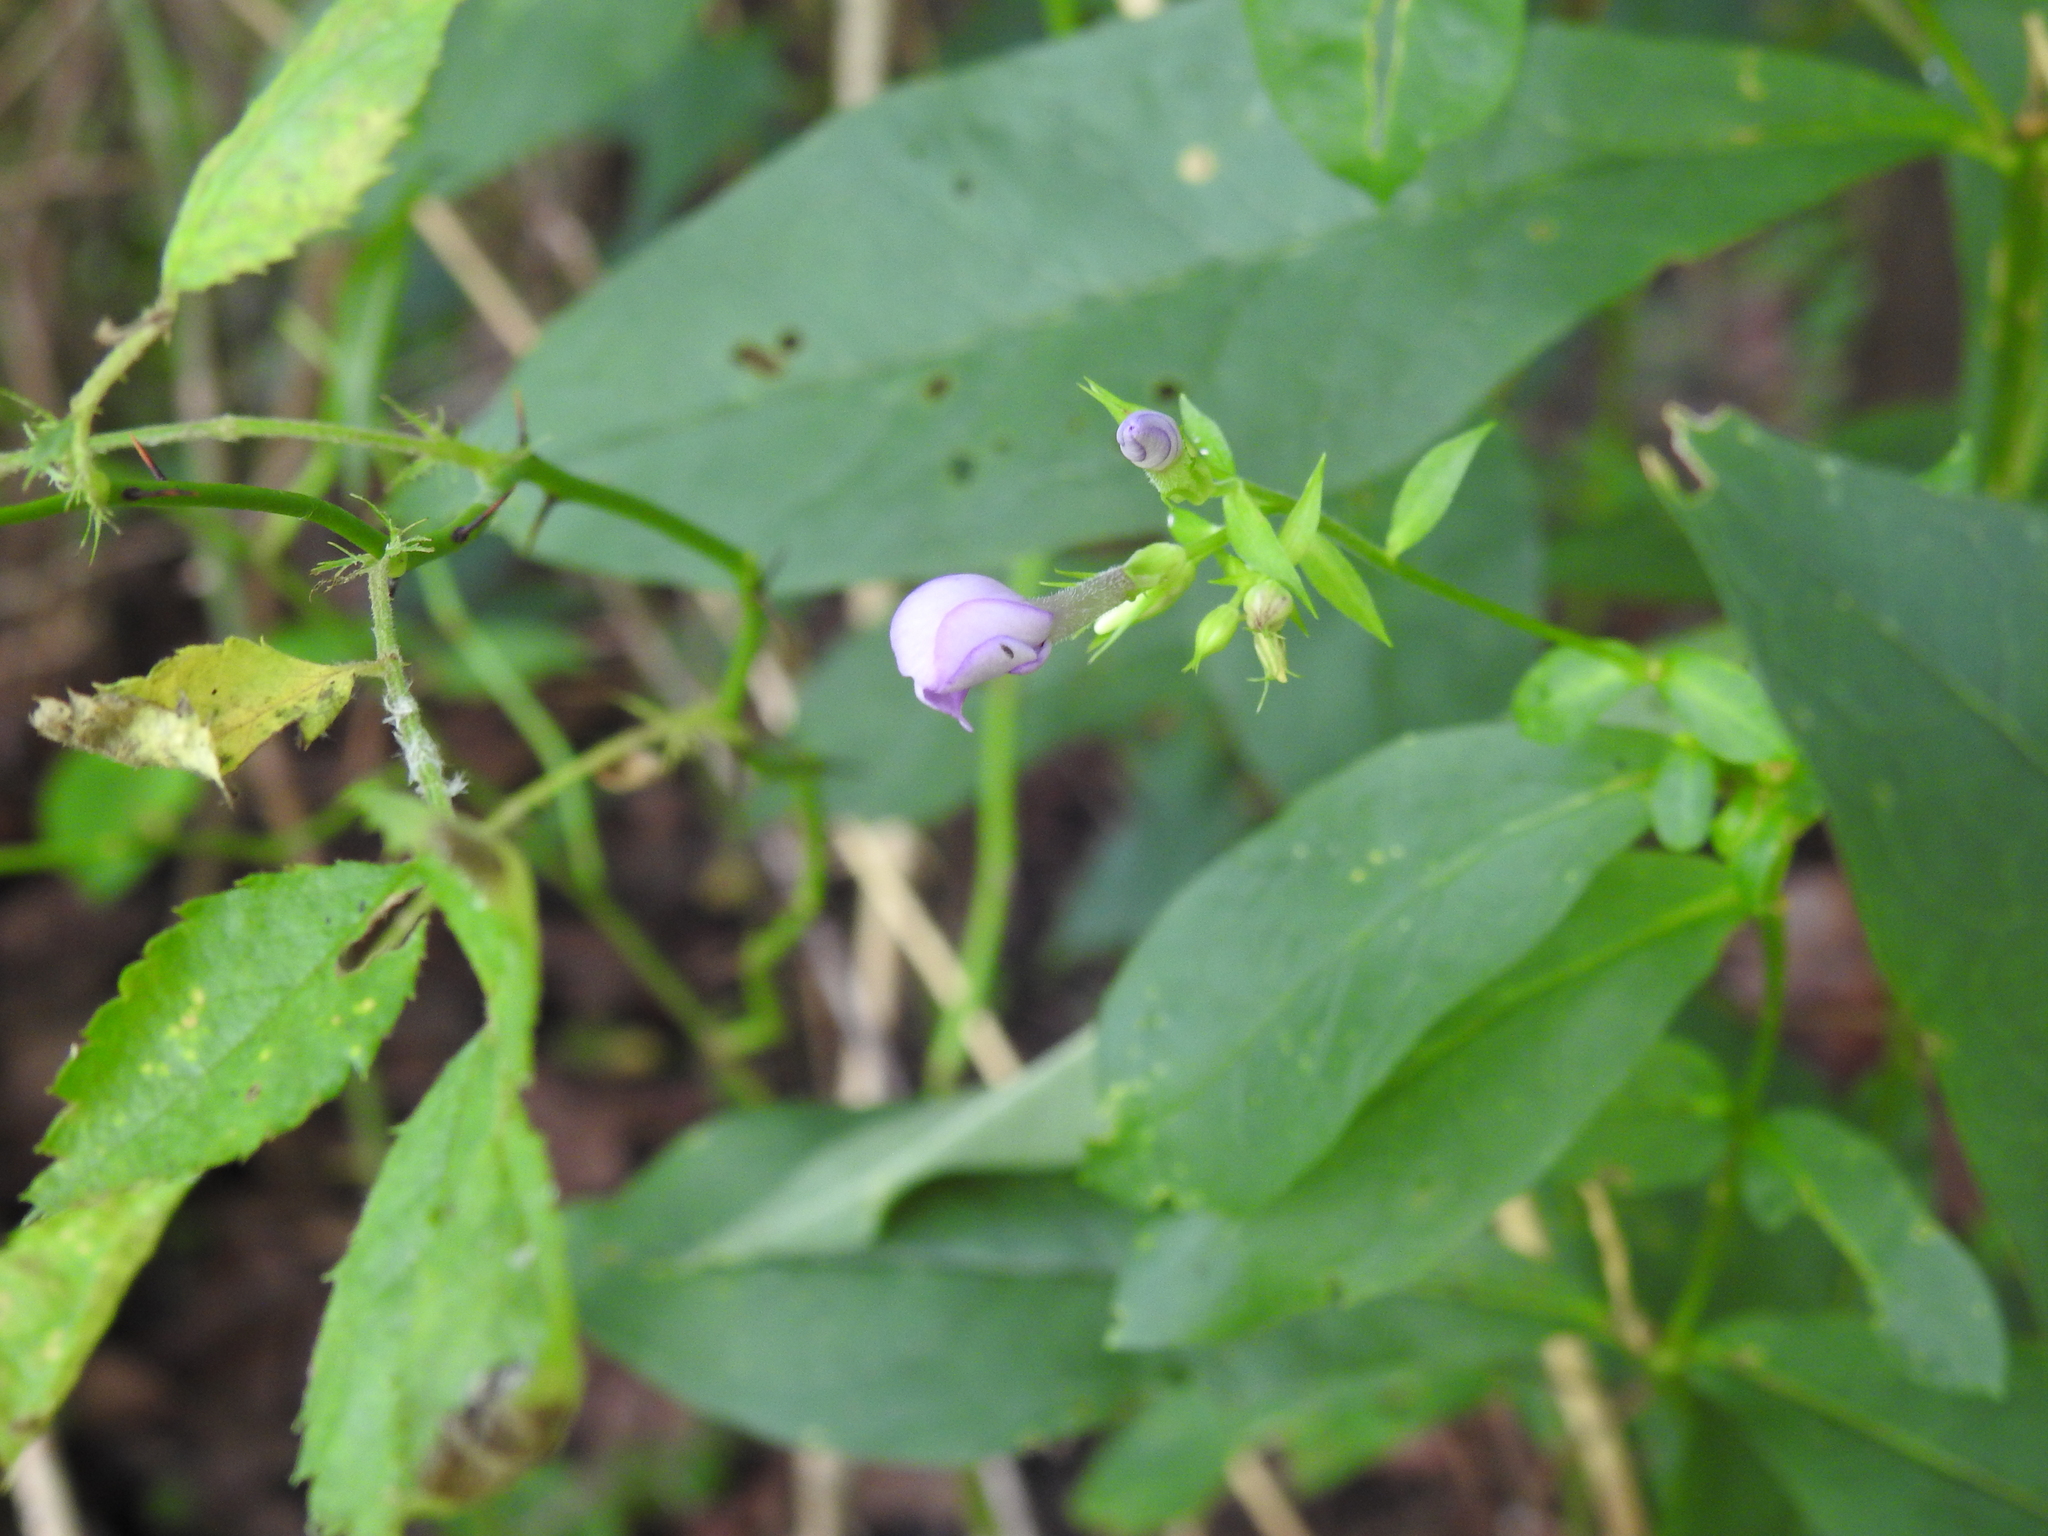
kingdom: Plantae
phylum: Tracheophyta
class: Magnoliopsida
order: Ericales
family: Polemoniaceae
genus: Phlox
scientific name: Phlox paniculata
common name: Fall phlox
